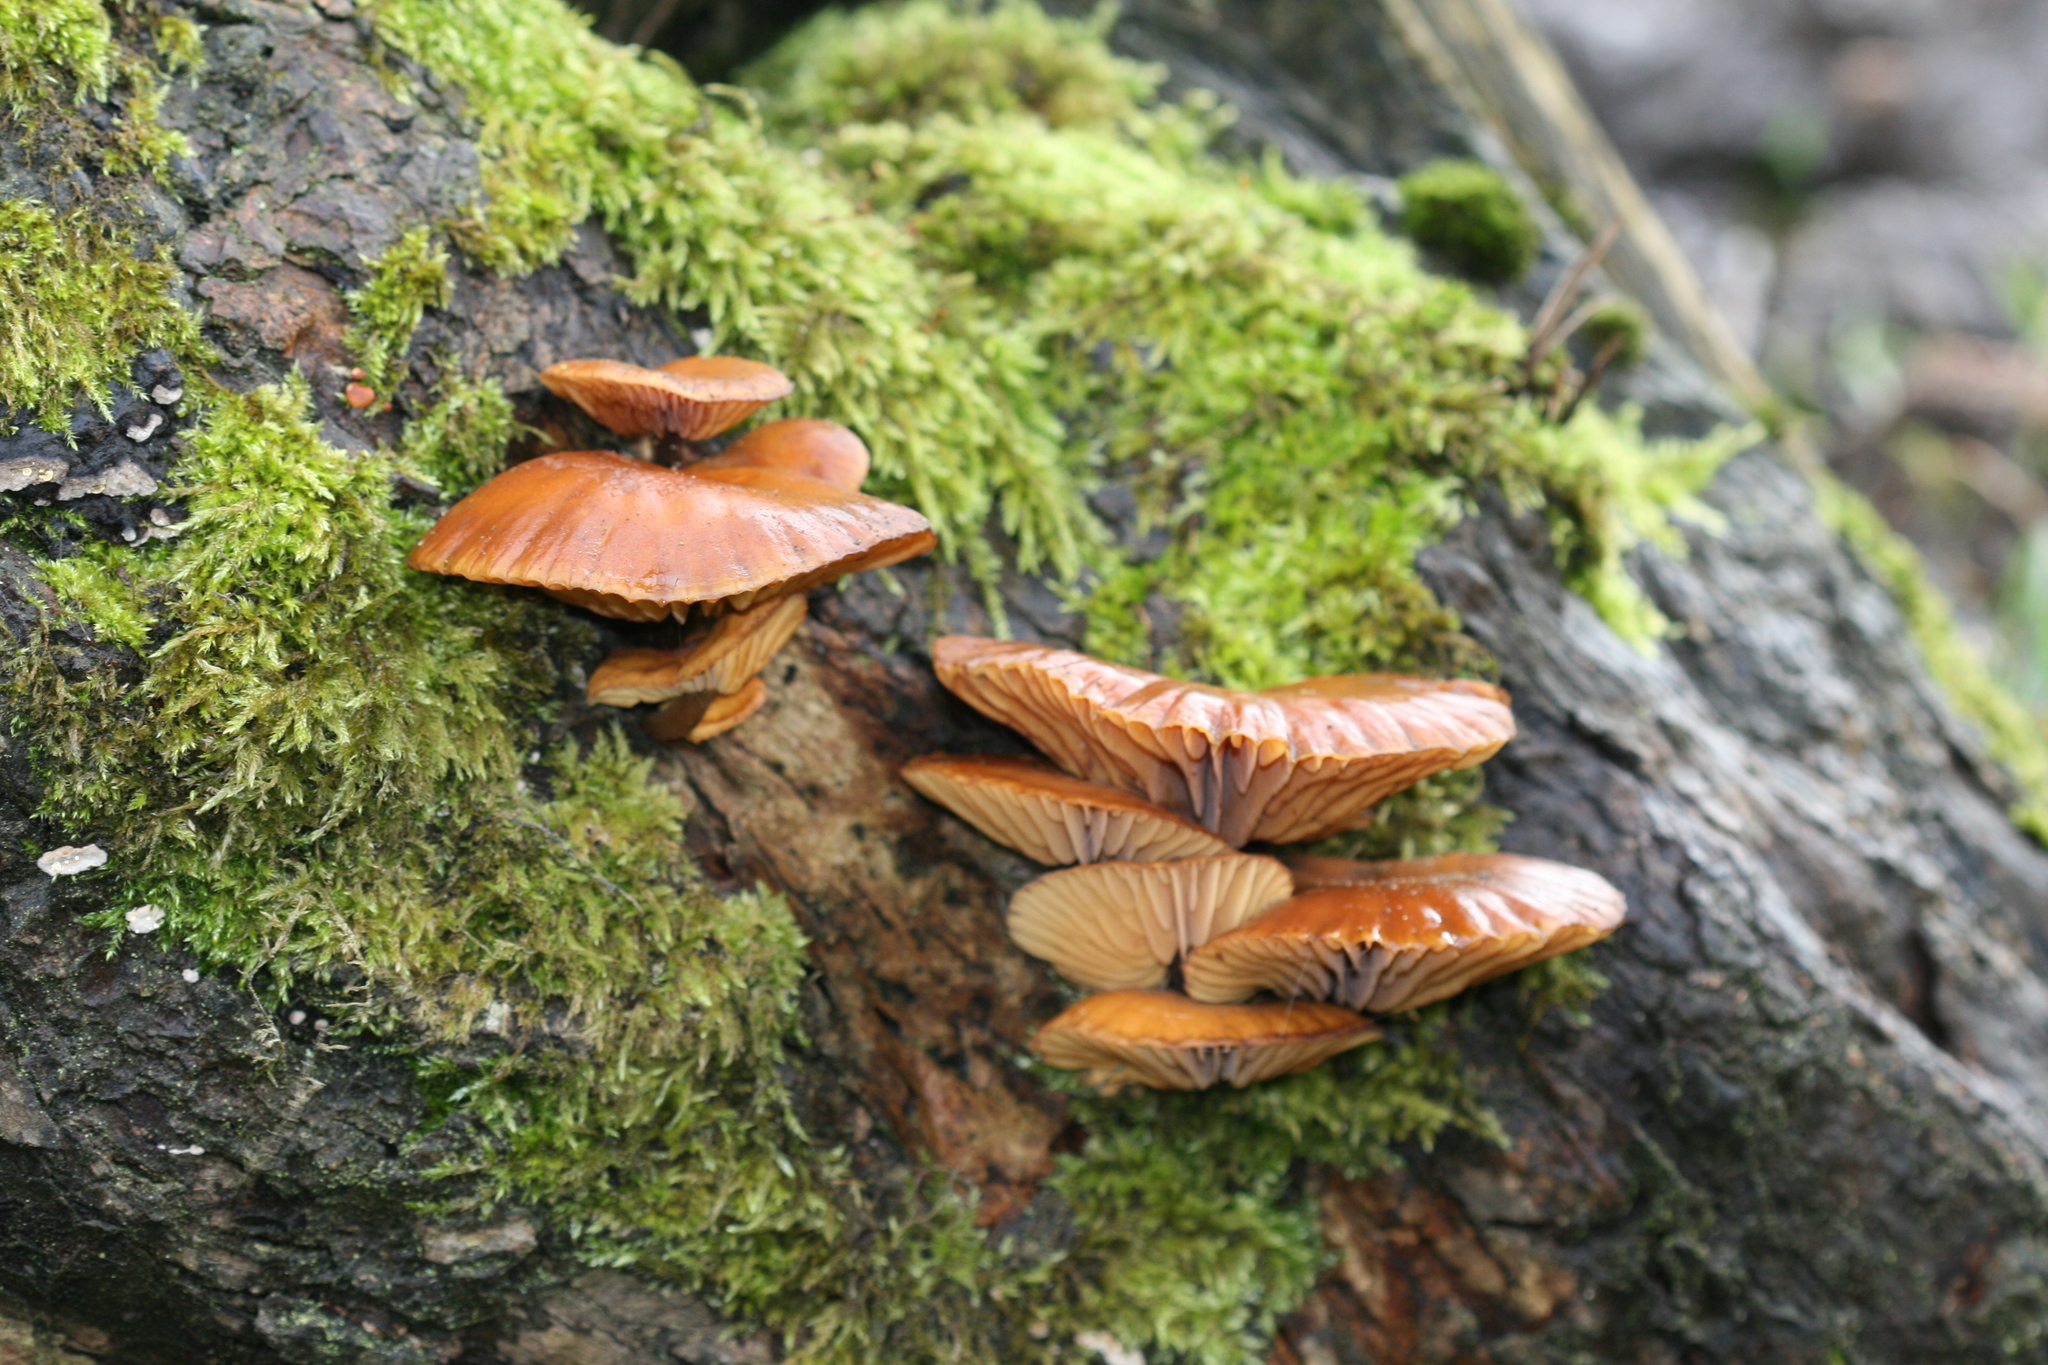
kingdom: Fungi
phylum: Basidiomycota
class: Agaricomycetes
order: Agaricales
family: Physalacriaceae
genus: Flammulina
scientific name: Flammulina
